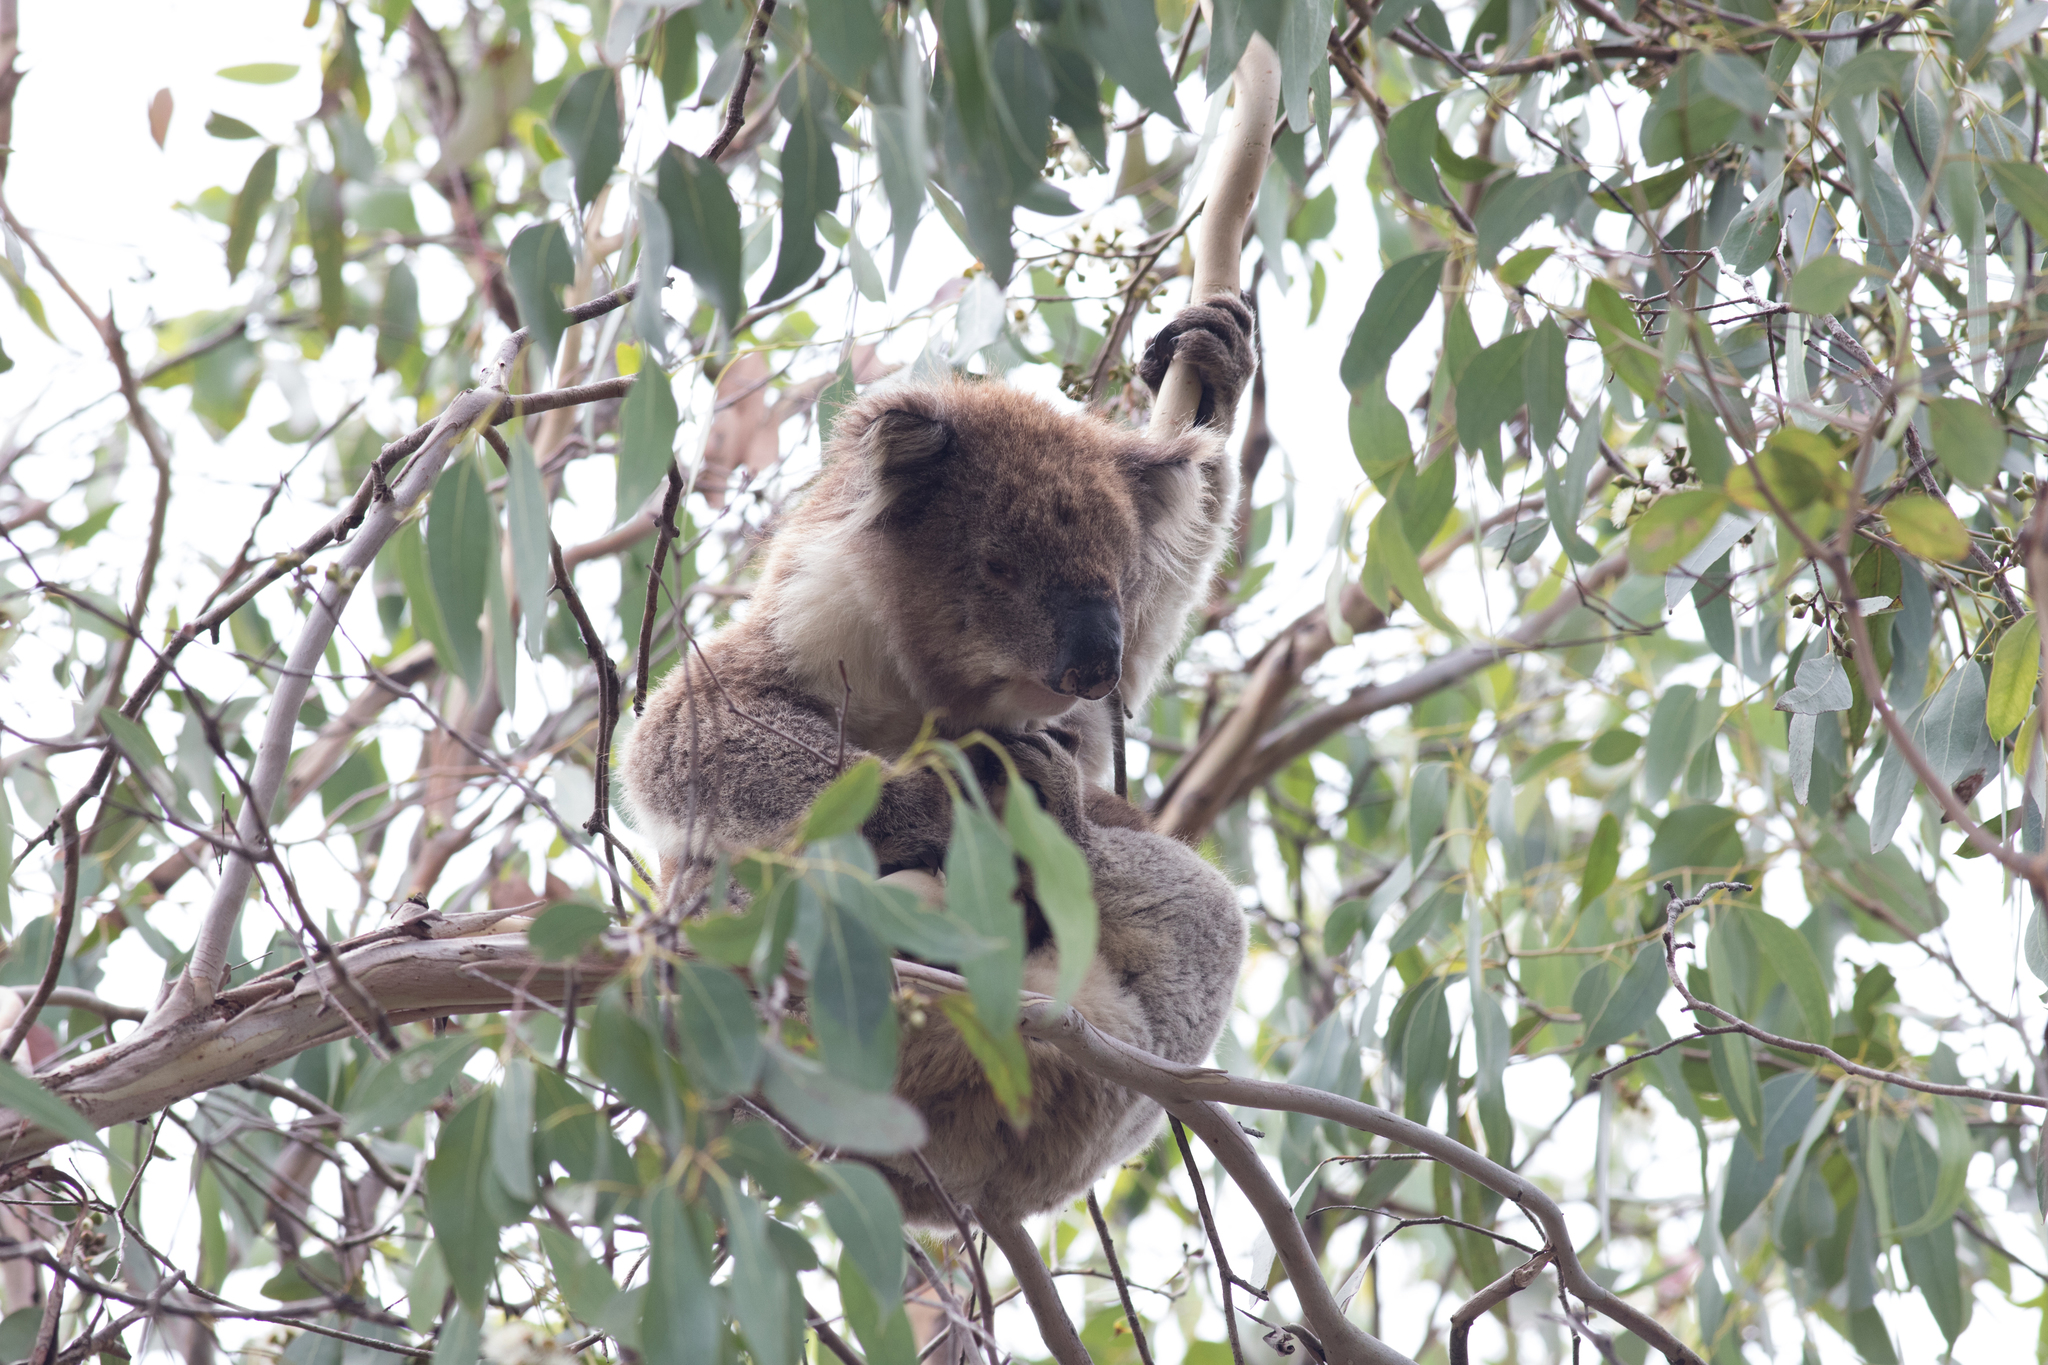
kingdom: Animalia
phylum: Chordata
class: Mammalia
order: Diprotodontia
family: Phascolarctidae
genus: Phascolarctos
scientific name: Phascolarctos cinereus
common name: Koala
